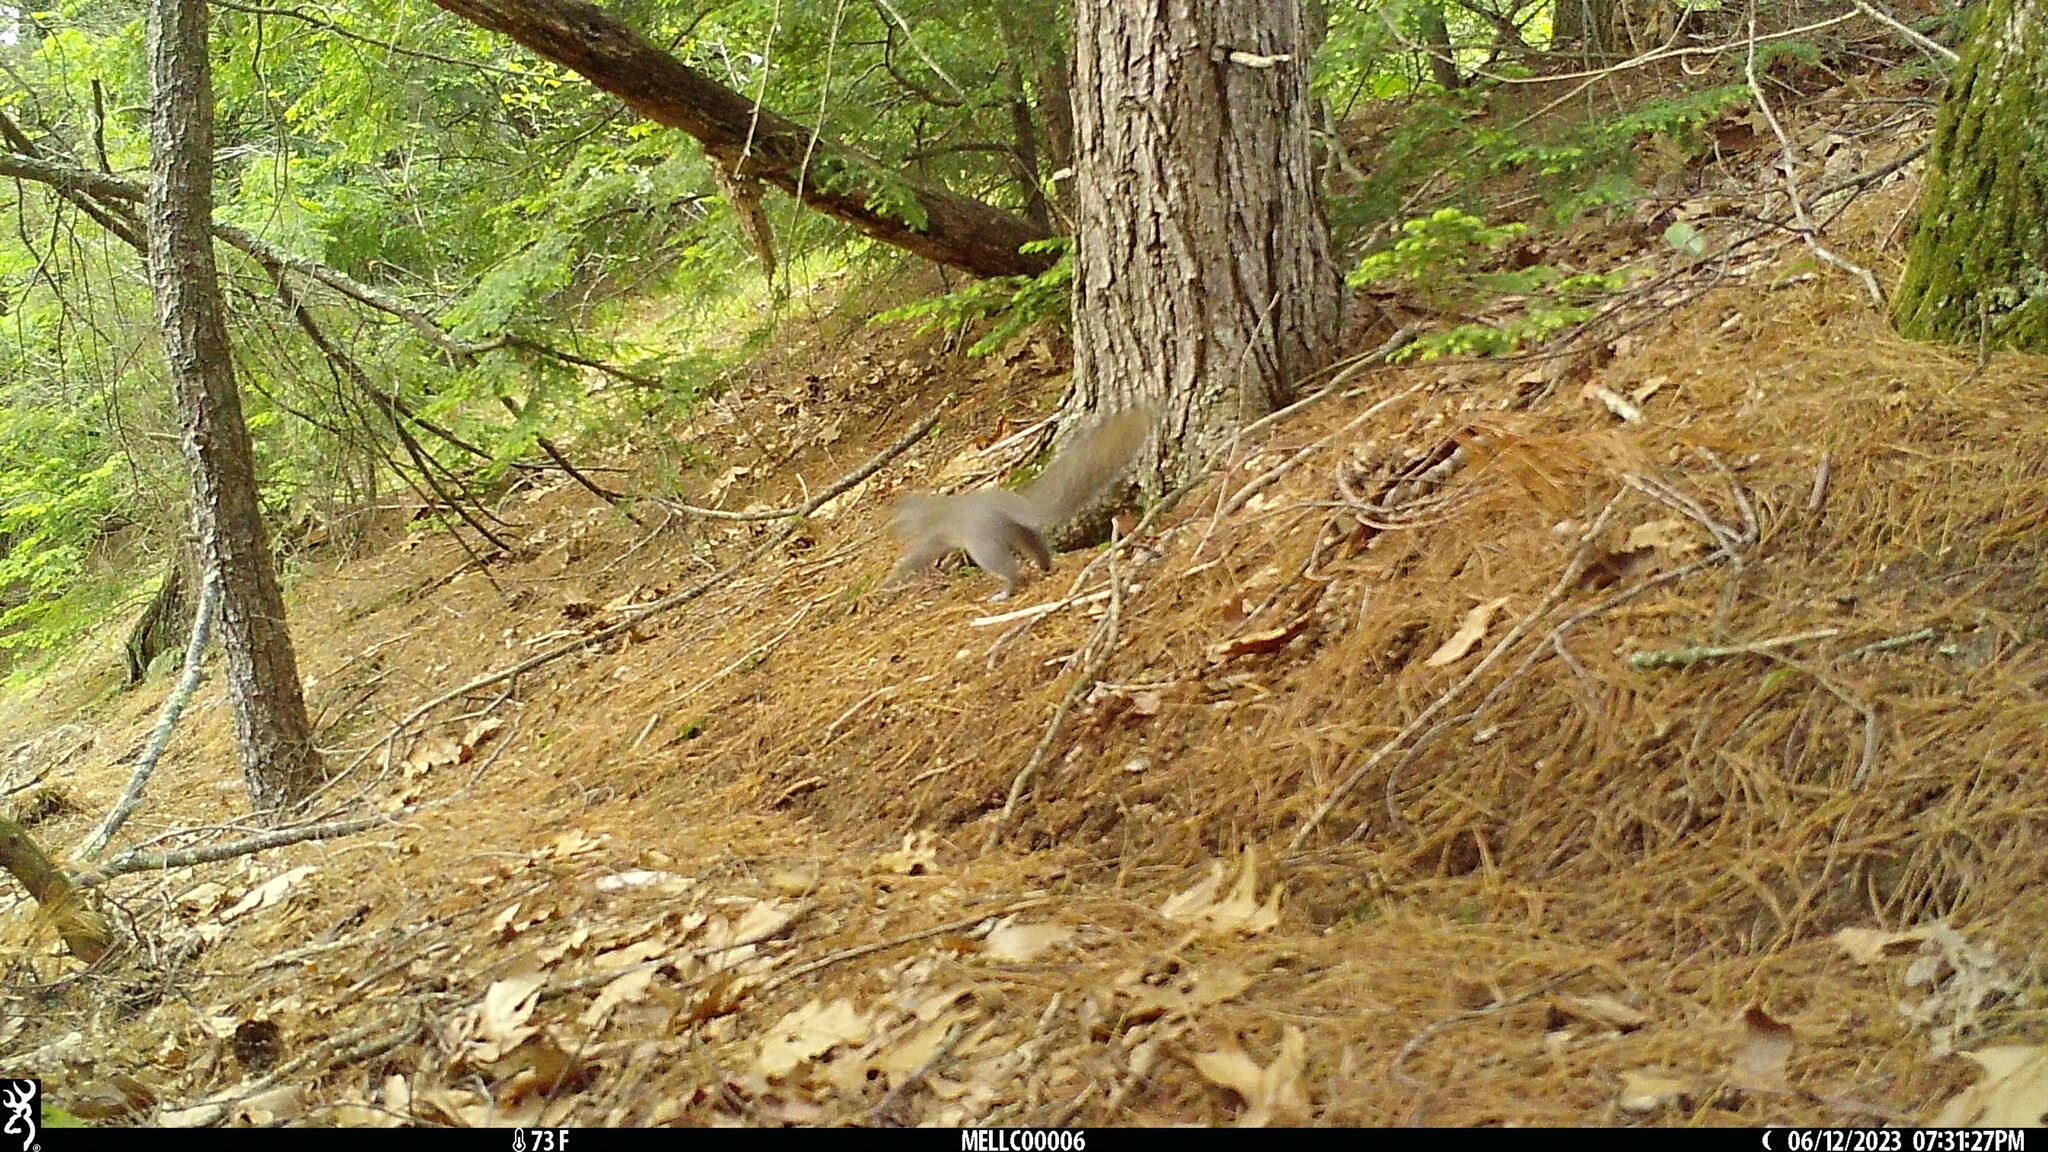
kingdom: Animalia
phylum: Chordata
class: Mammalia
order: Rodentia
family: Sciuridae
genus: Sciurus
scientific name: Sciurus carolinensis
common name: Eastern gray squirrel
